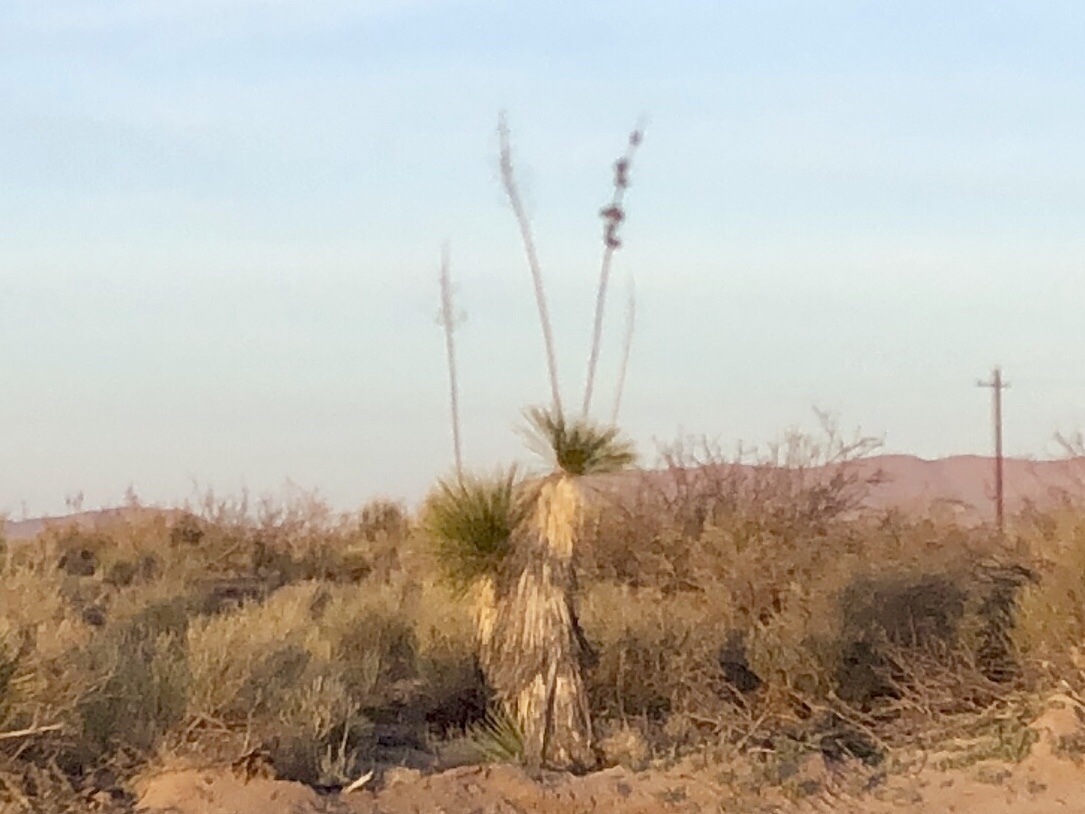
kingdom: Plantae
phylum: Tracheophyta
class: Liliopsida
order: Asparagales
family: Asparagaceae
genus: Yucca
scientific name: Yucca elata
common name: Palmella
